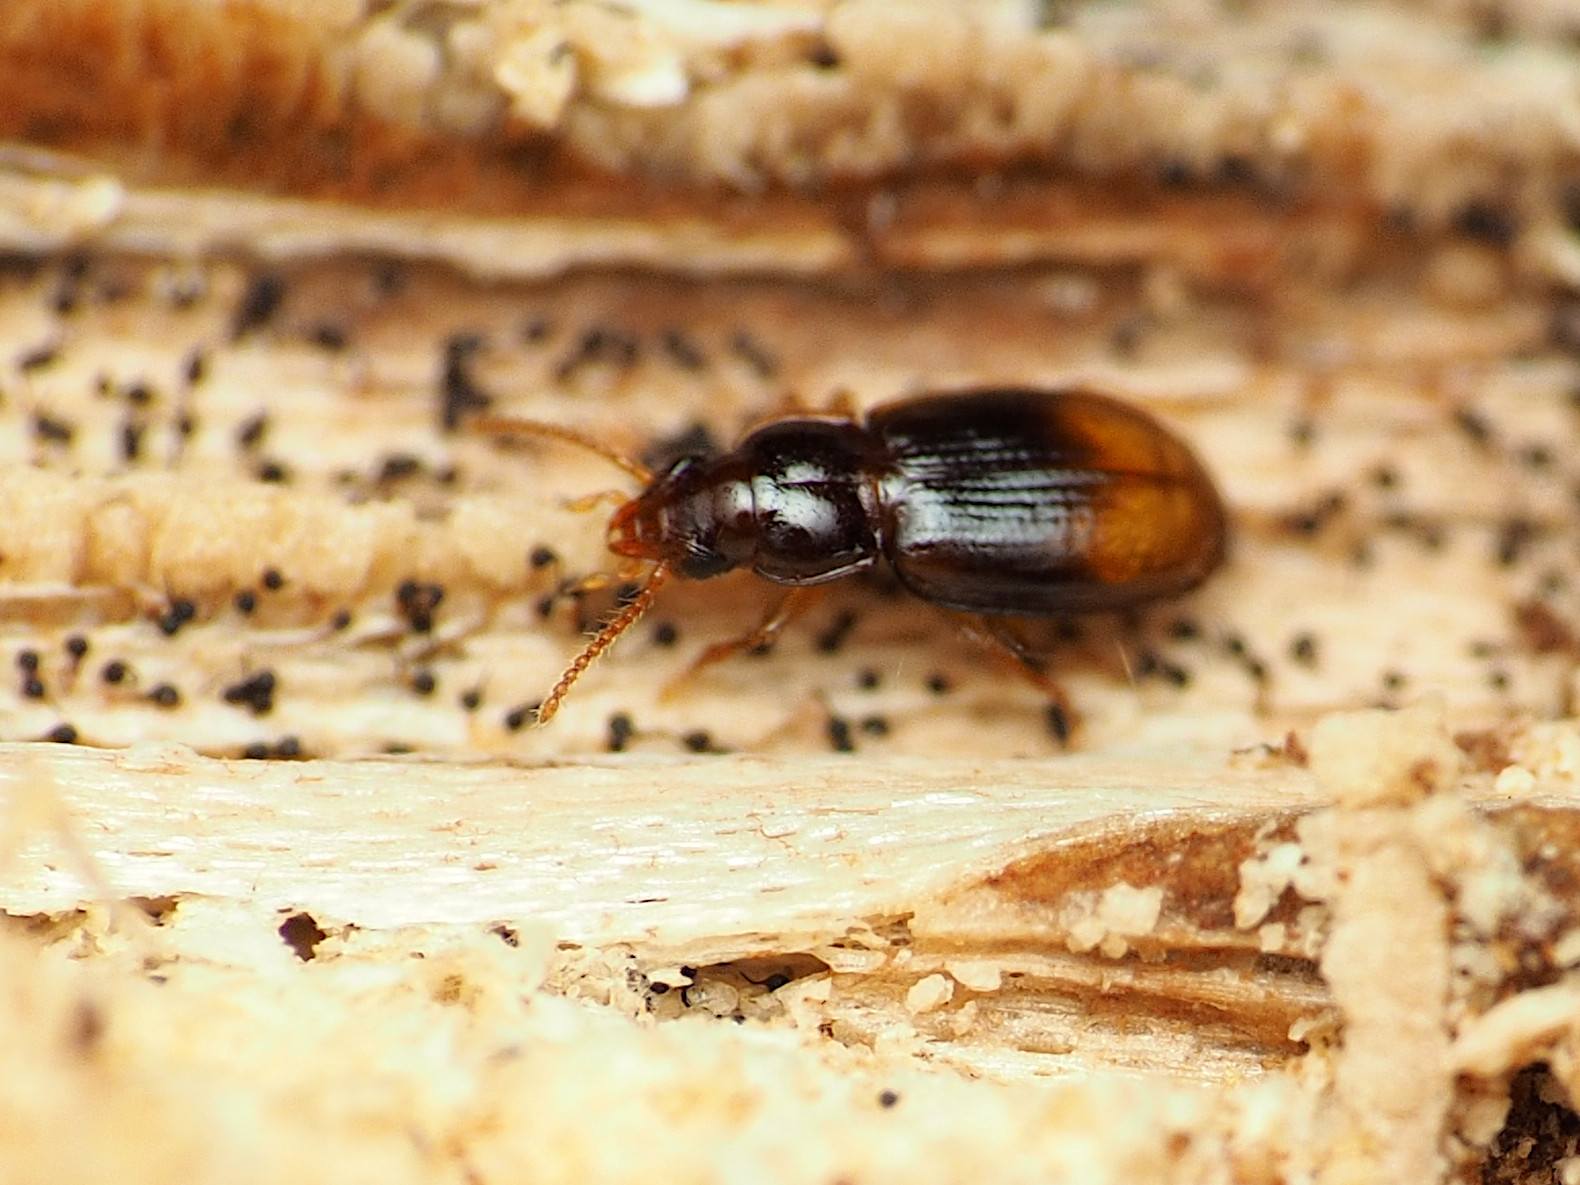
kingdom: Animalia
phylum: Arthropoda
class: Insecta
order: Coleoptera
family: Carabidae
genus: Mioptachys
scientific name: Mioptachys flavicauda
